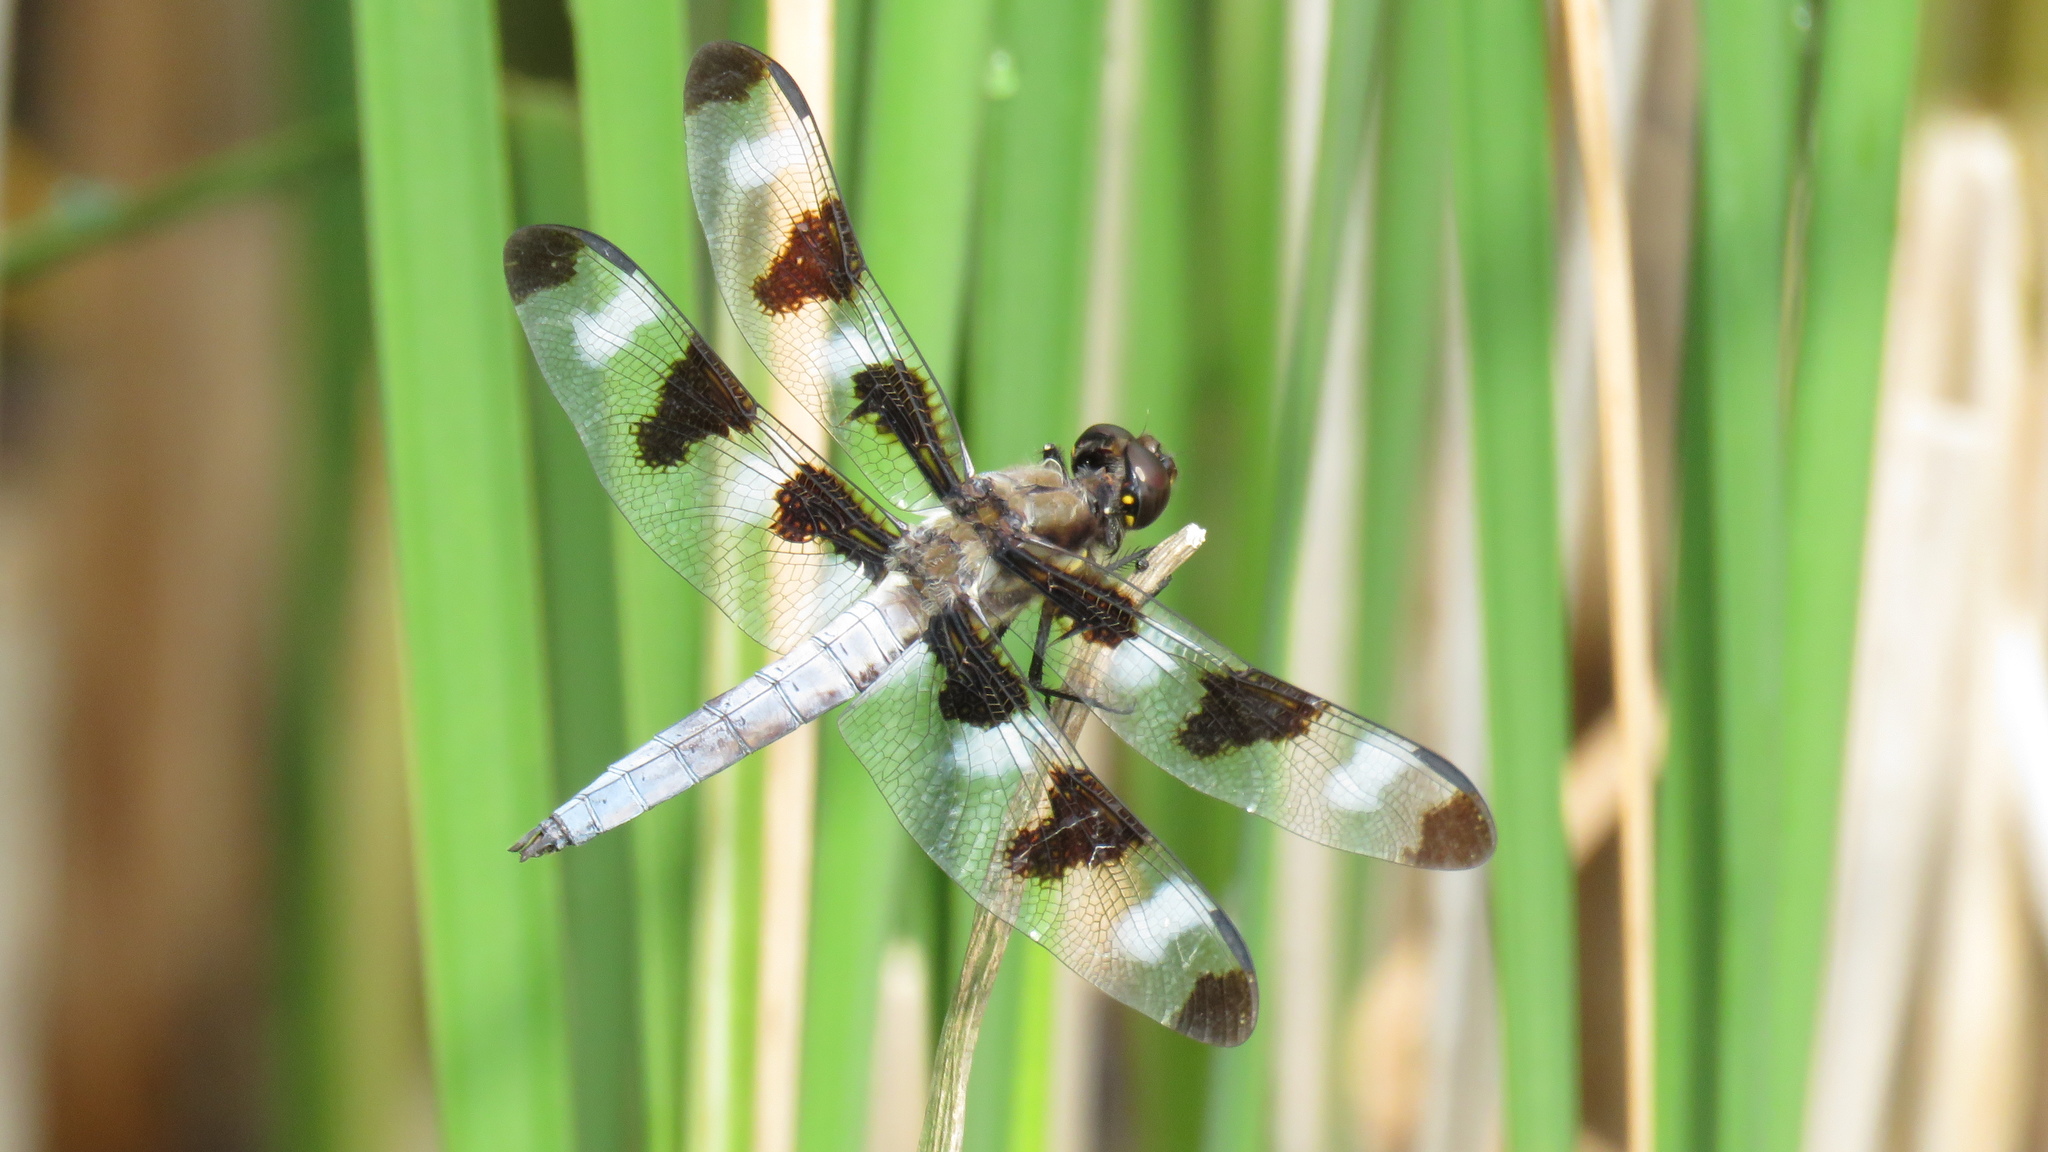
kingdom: Animalia
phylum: Arthropoda
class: Insecta
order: Odonata
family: Libellulidae
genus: Libellula
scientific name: Libellula pulchella
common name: Twelve-spotted skimmer
